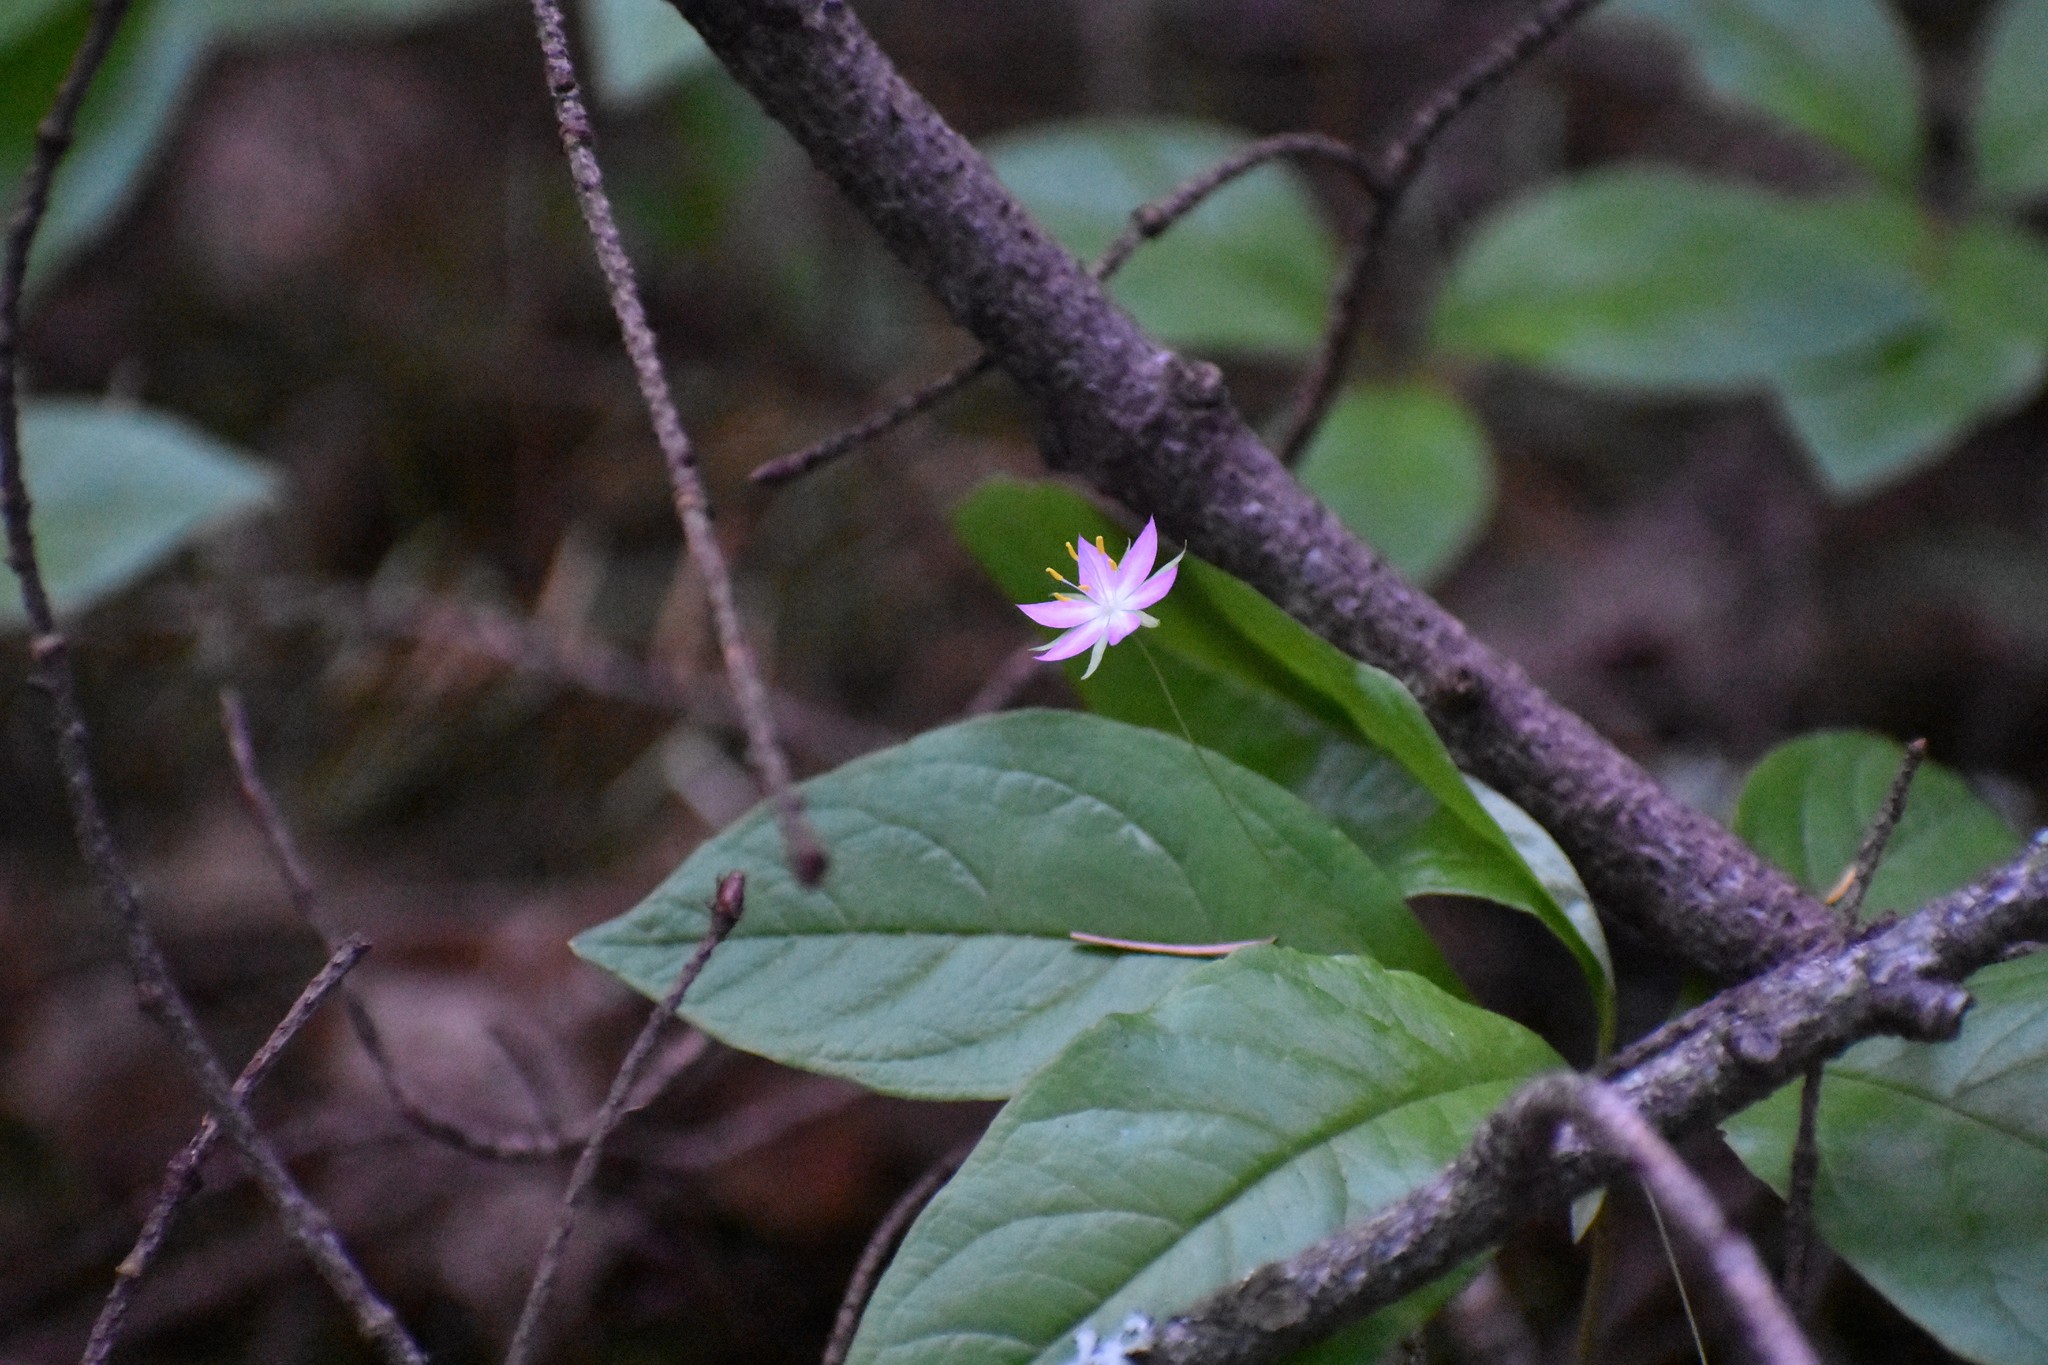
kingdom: Plantae
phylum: Tracheophyta
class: Magnoliopsida
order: Ericales
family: Primulaceae
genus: Lysimachia
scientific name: Lysimachia latifolia
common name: Pacific starflower
